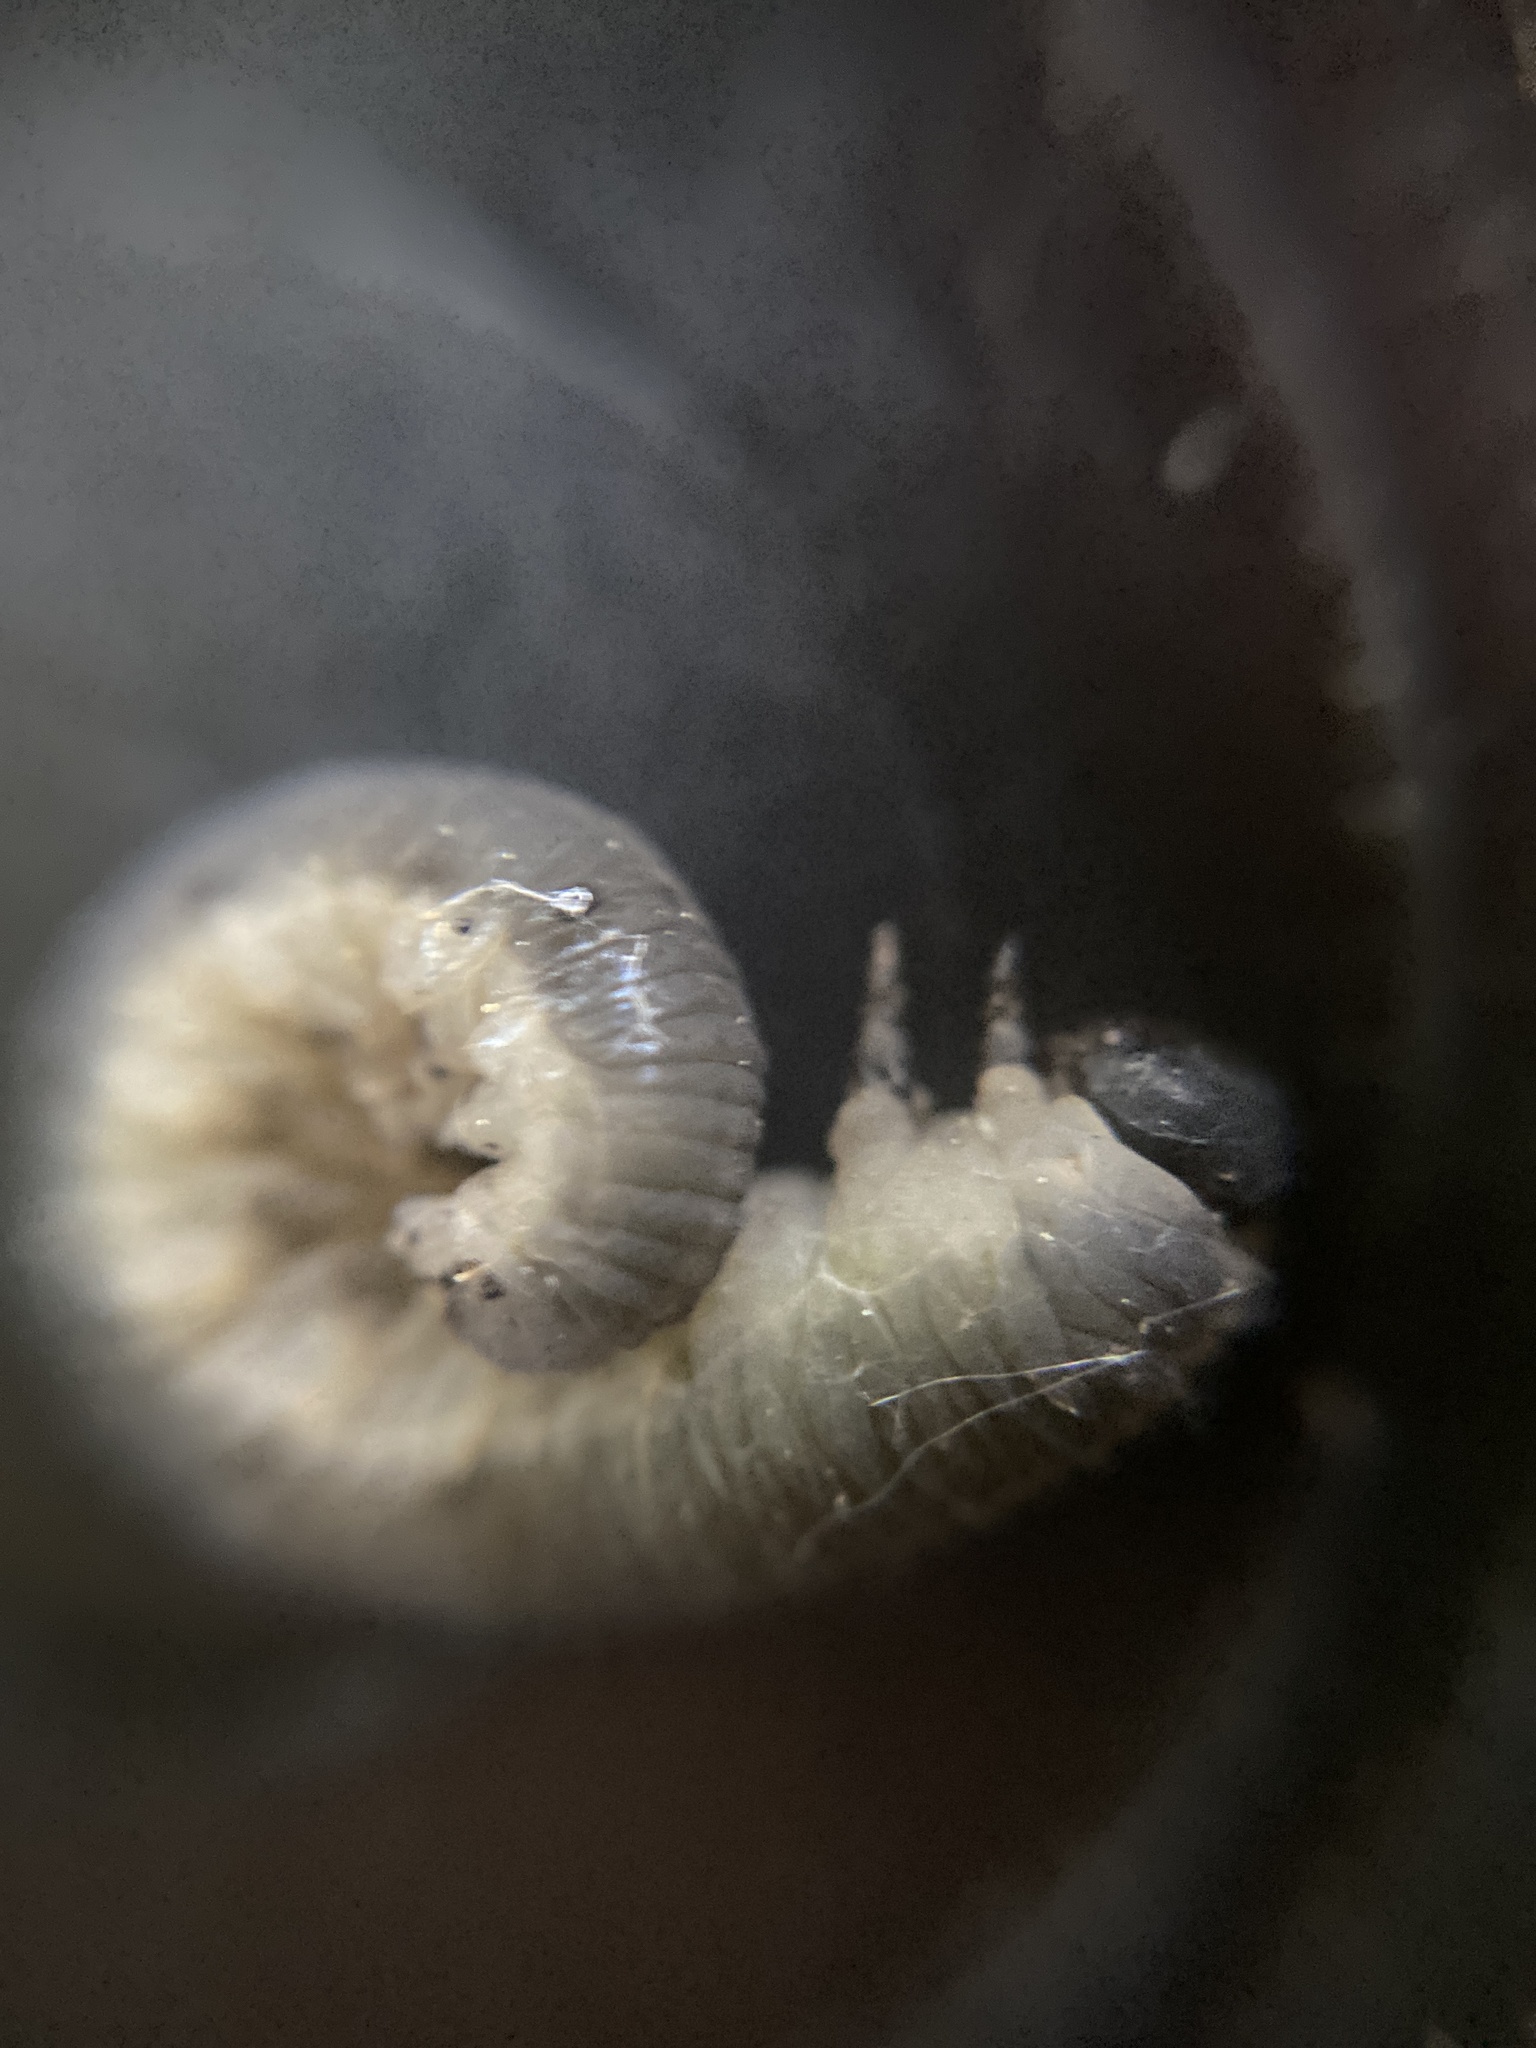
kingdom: Animalia
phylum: Arthropoda
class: Insecta
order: Hymenoptera
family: Tenthredinidae
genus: Apethymus
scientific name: Apethymus serotinus
